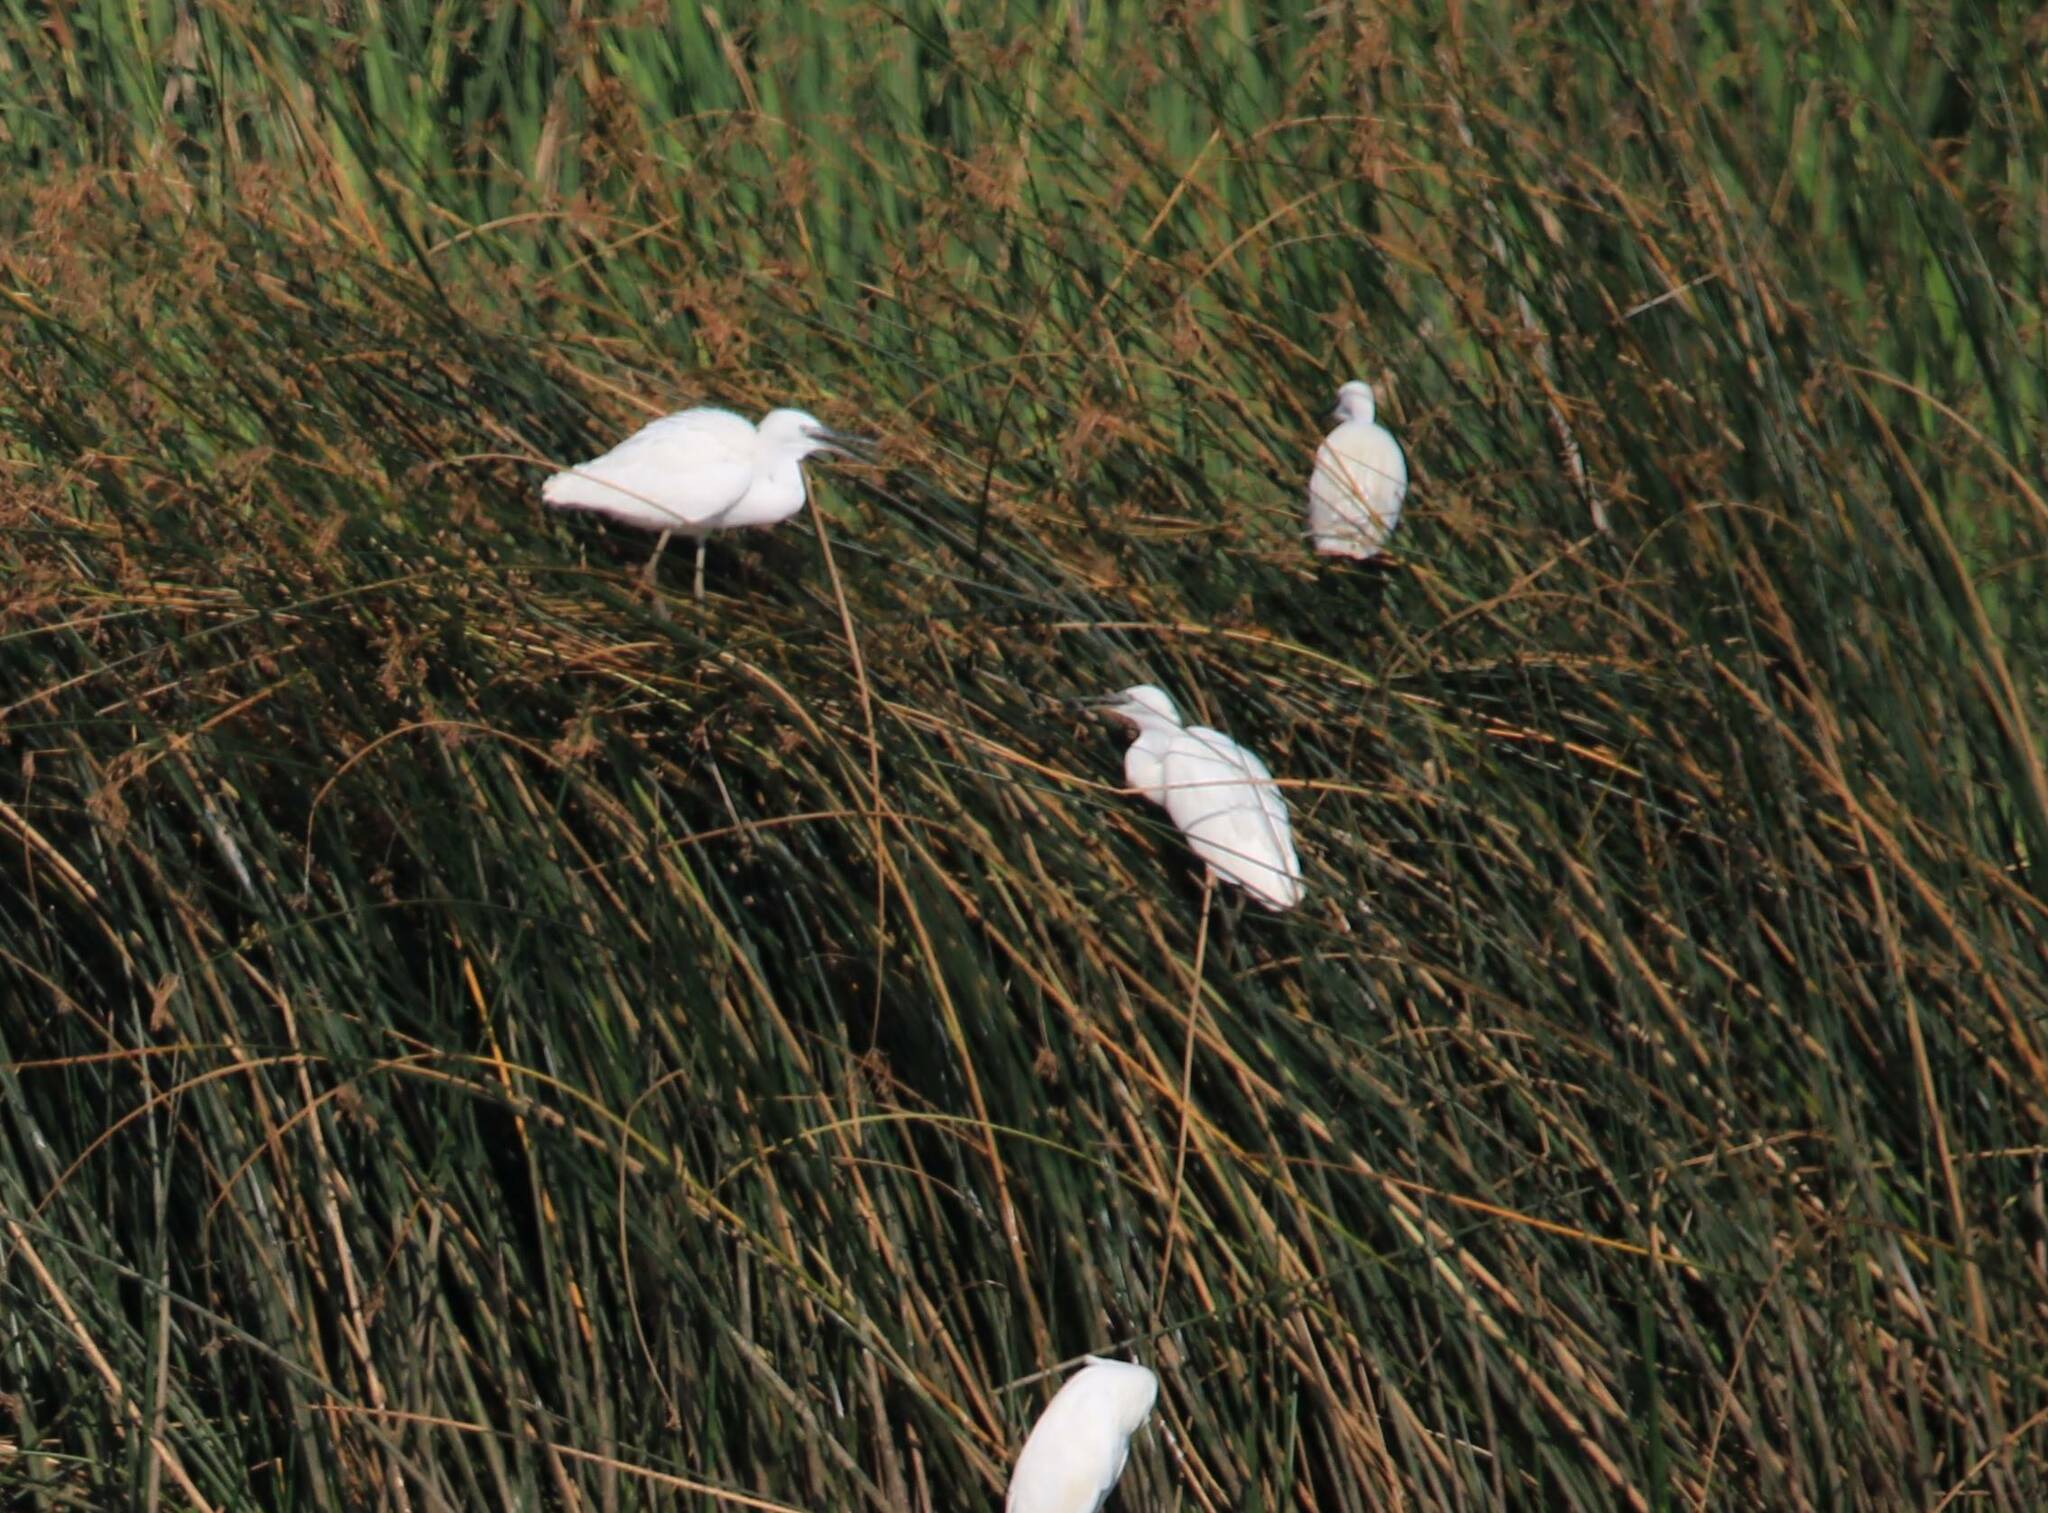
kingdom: Animalia
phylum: Chordata
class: Aves
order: Pelecaniformes
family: Ardeidae
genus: Egretta
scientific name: Egretta garzetta
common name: Little egret
